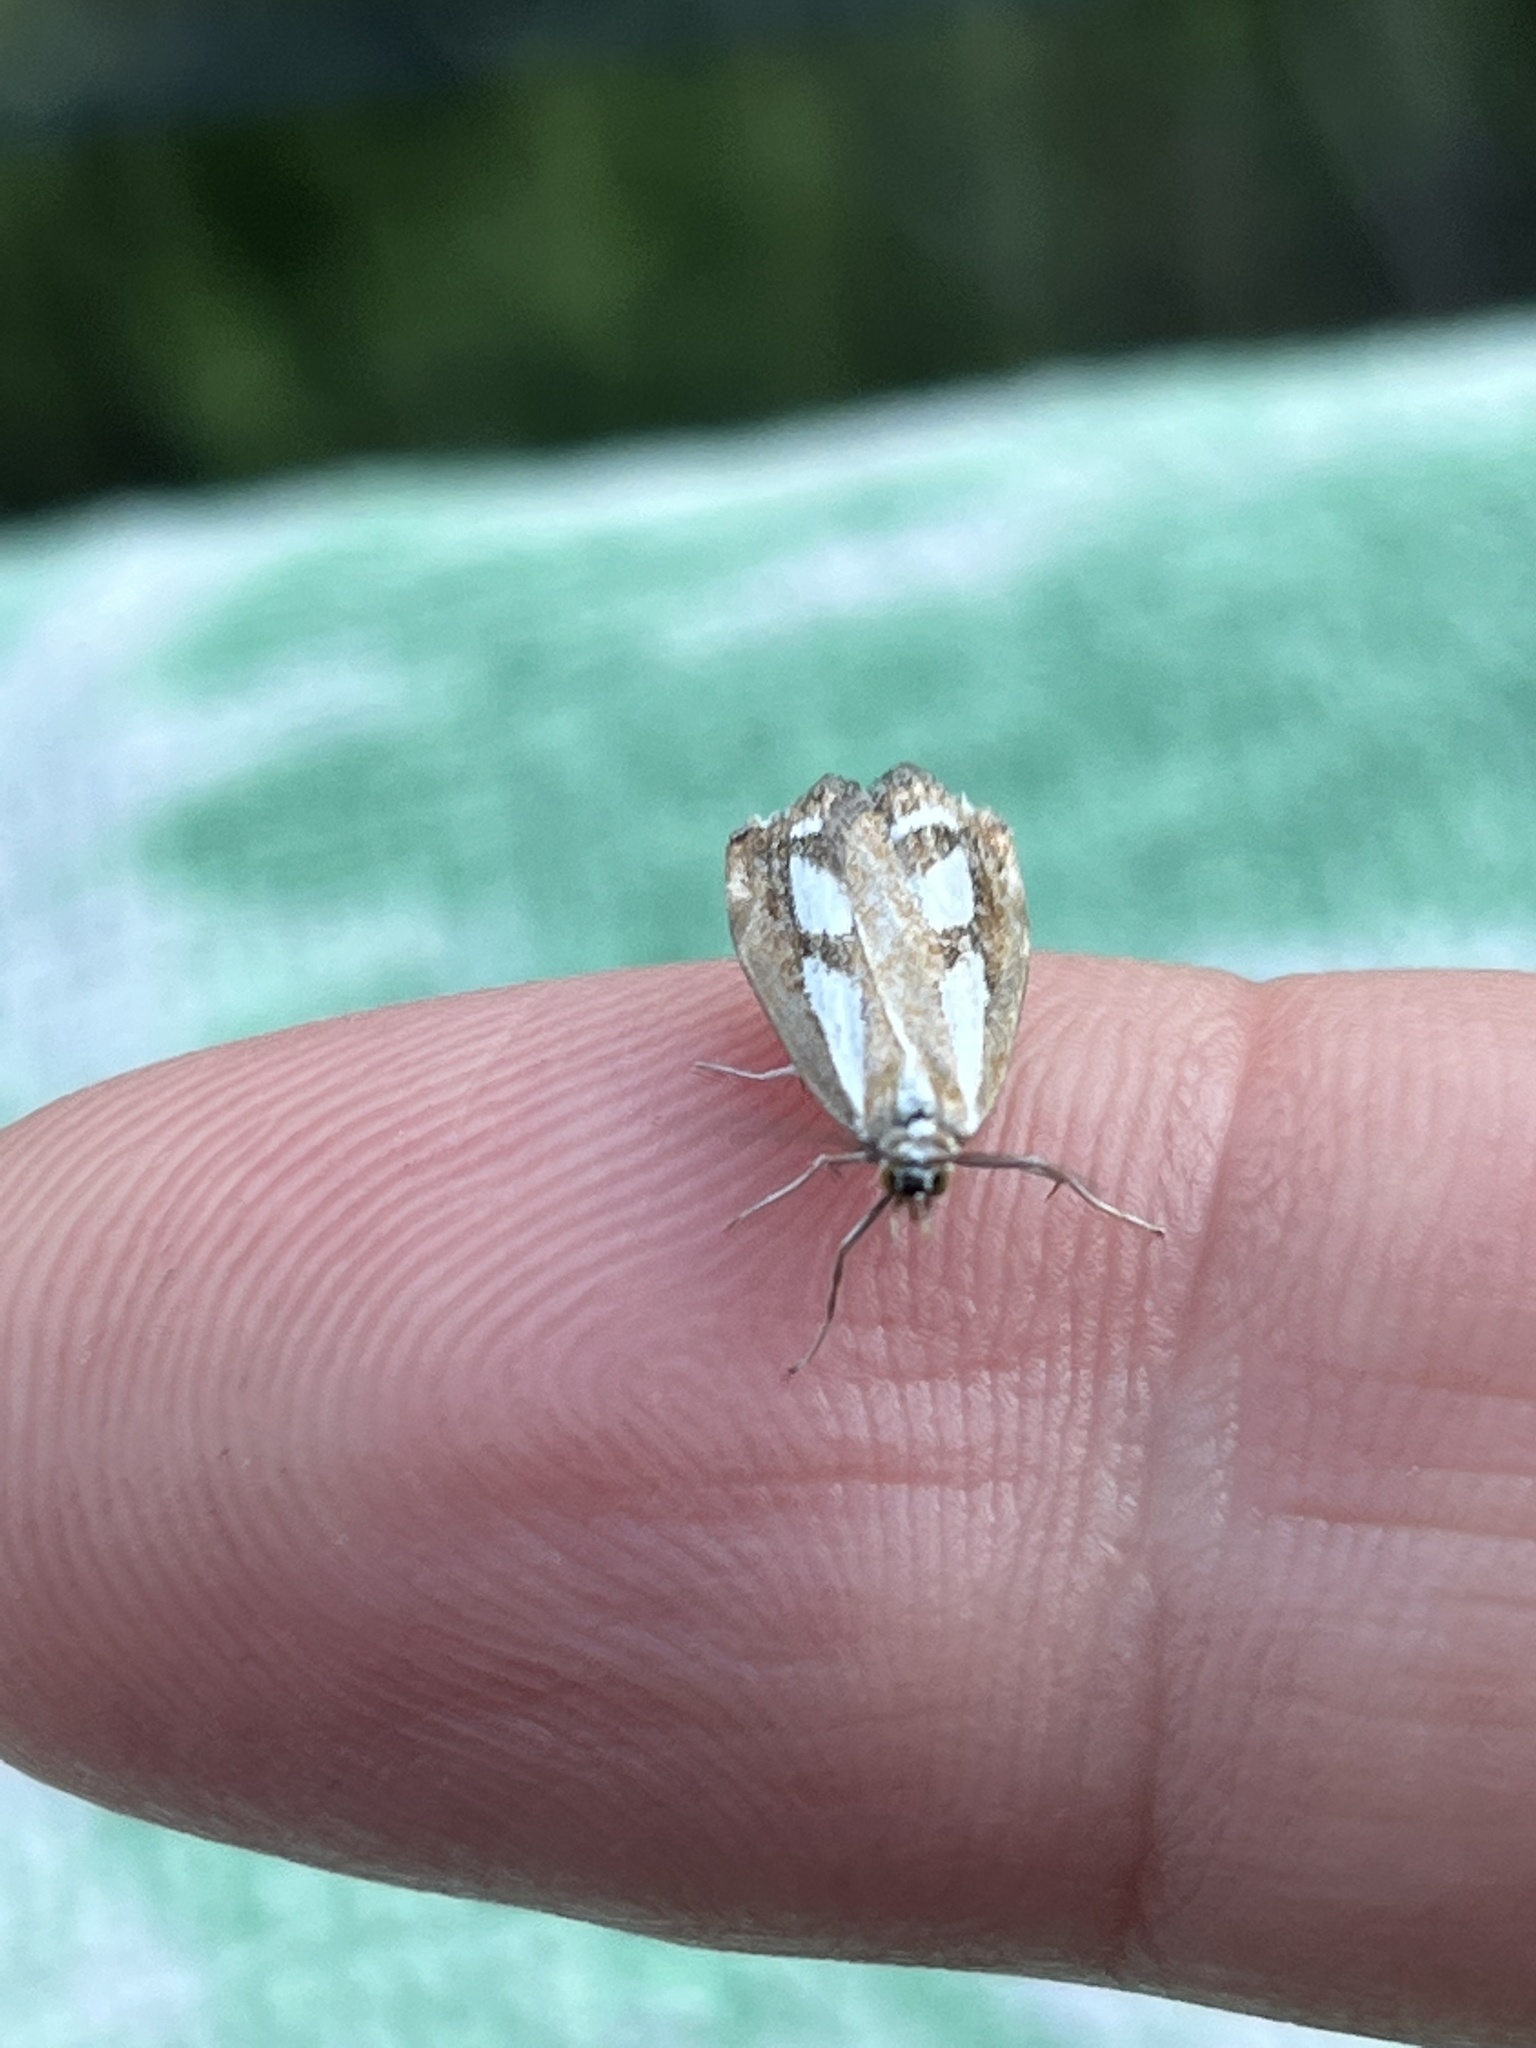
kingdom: Animalia
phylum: Arthropoda
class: Insecta
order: Lepidoptera
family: Crambidae
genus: Catoptria
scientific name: Catoptria latiradiellus
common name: Two-banded catoptria moth
